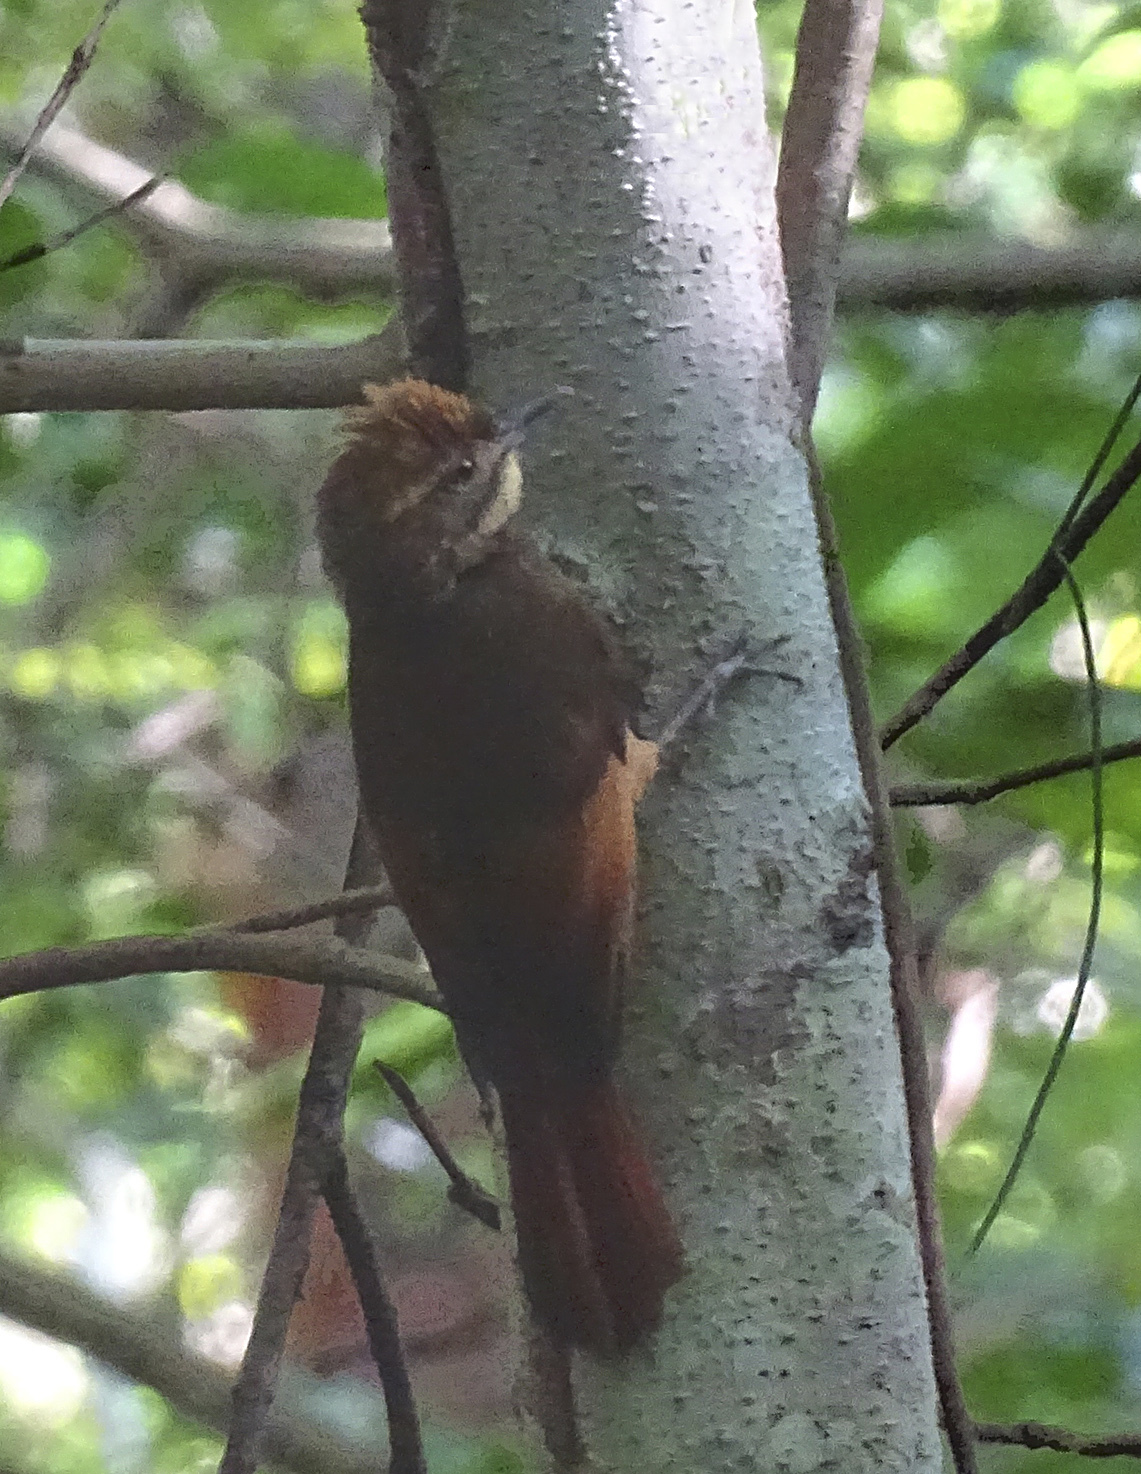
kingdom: Animalia
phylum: Chordata
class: Aves
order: Passeriformes
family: Furnariidae
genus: Dendrocincla
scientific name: Dendrocincla anabatina
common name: Tawny-winged woodcreeper
